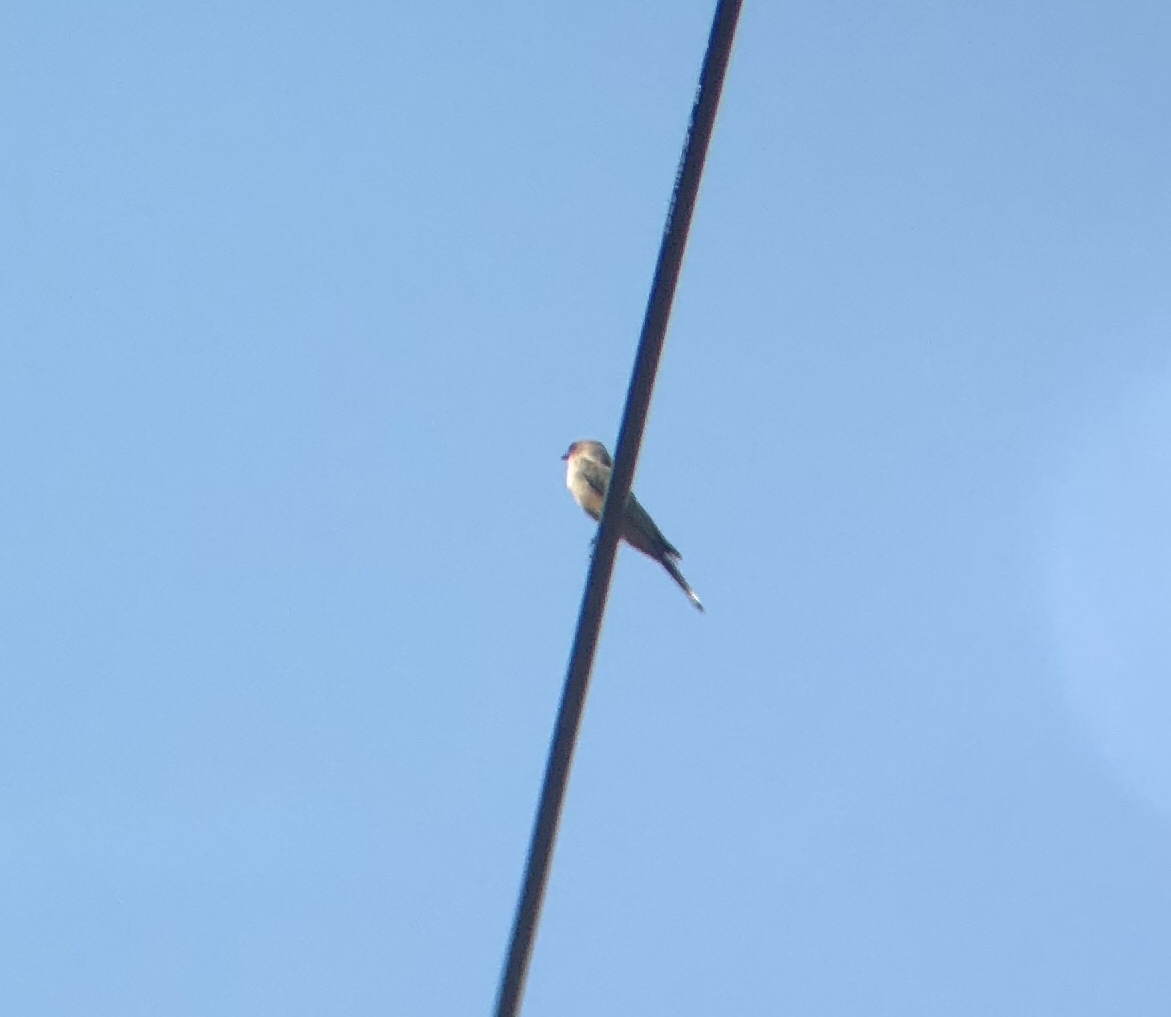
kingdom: Animalia
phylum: Chordata
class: Aves
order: Passeriformes
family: Tyrannidae
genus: Sayornis
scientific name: Sayornis saya
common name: Say's phoebe
